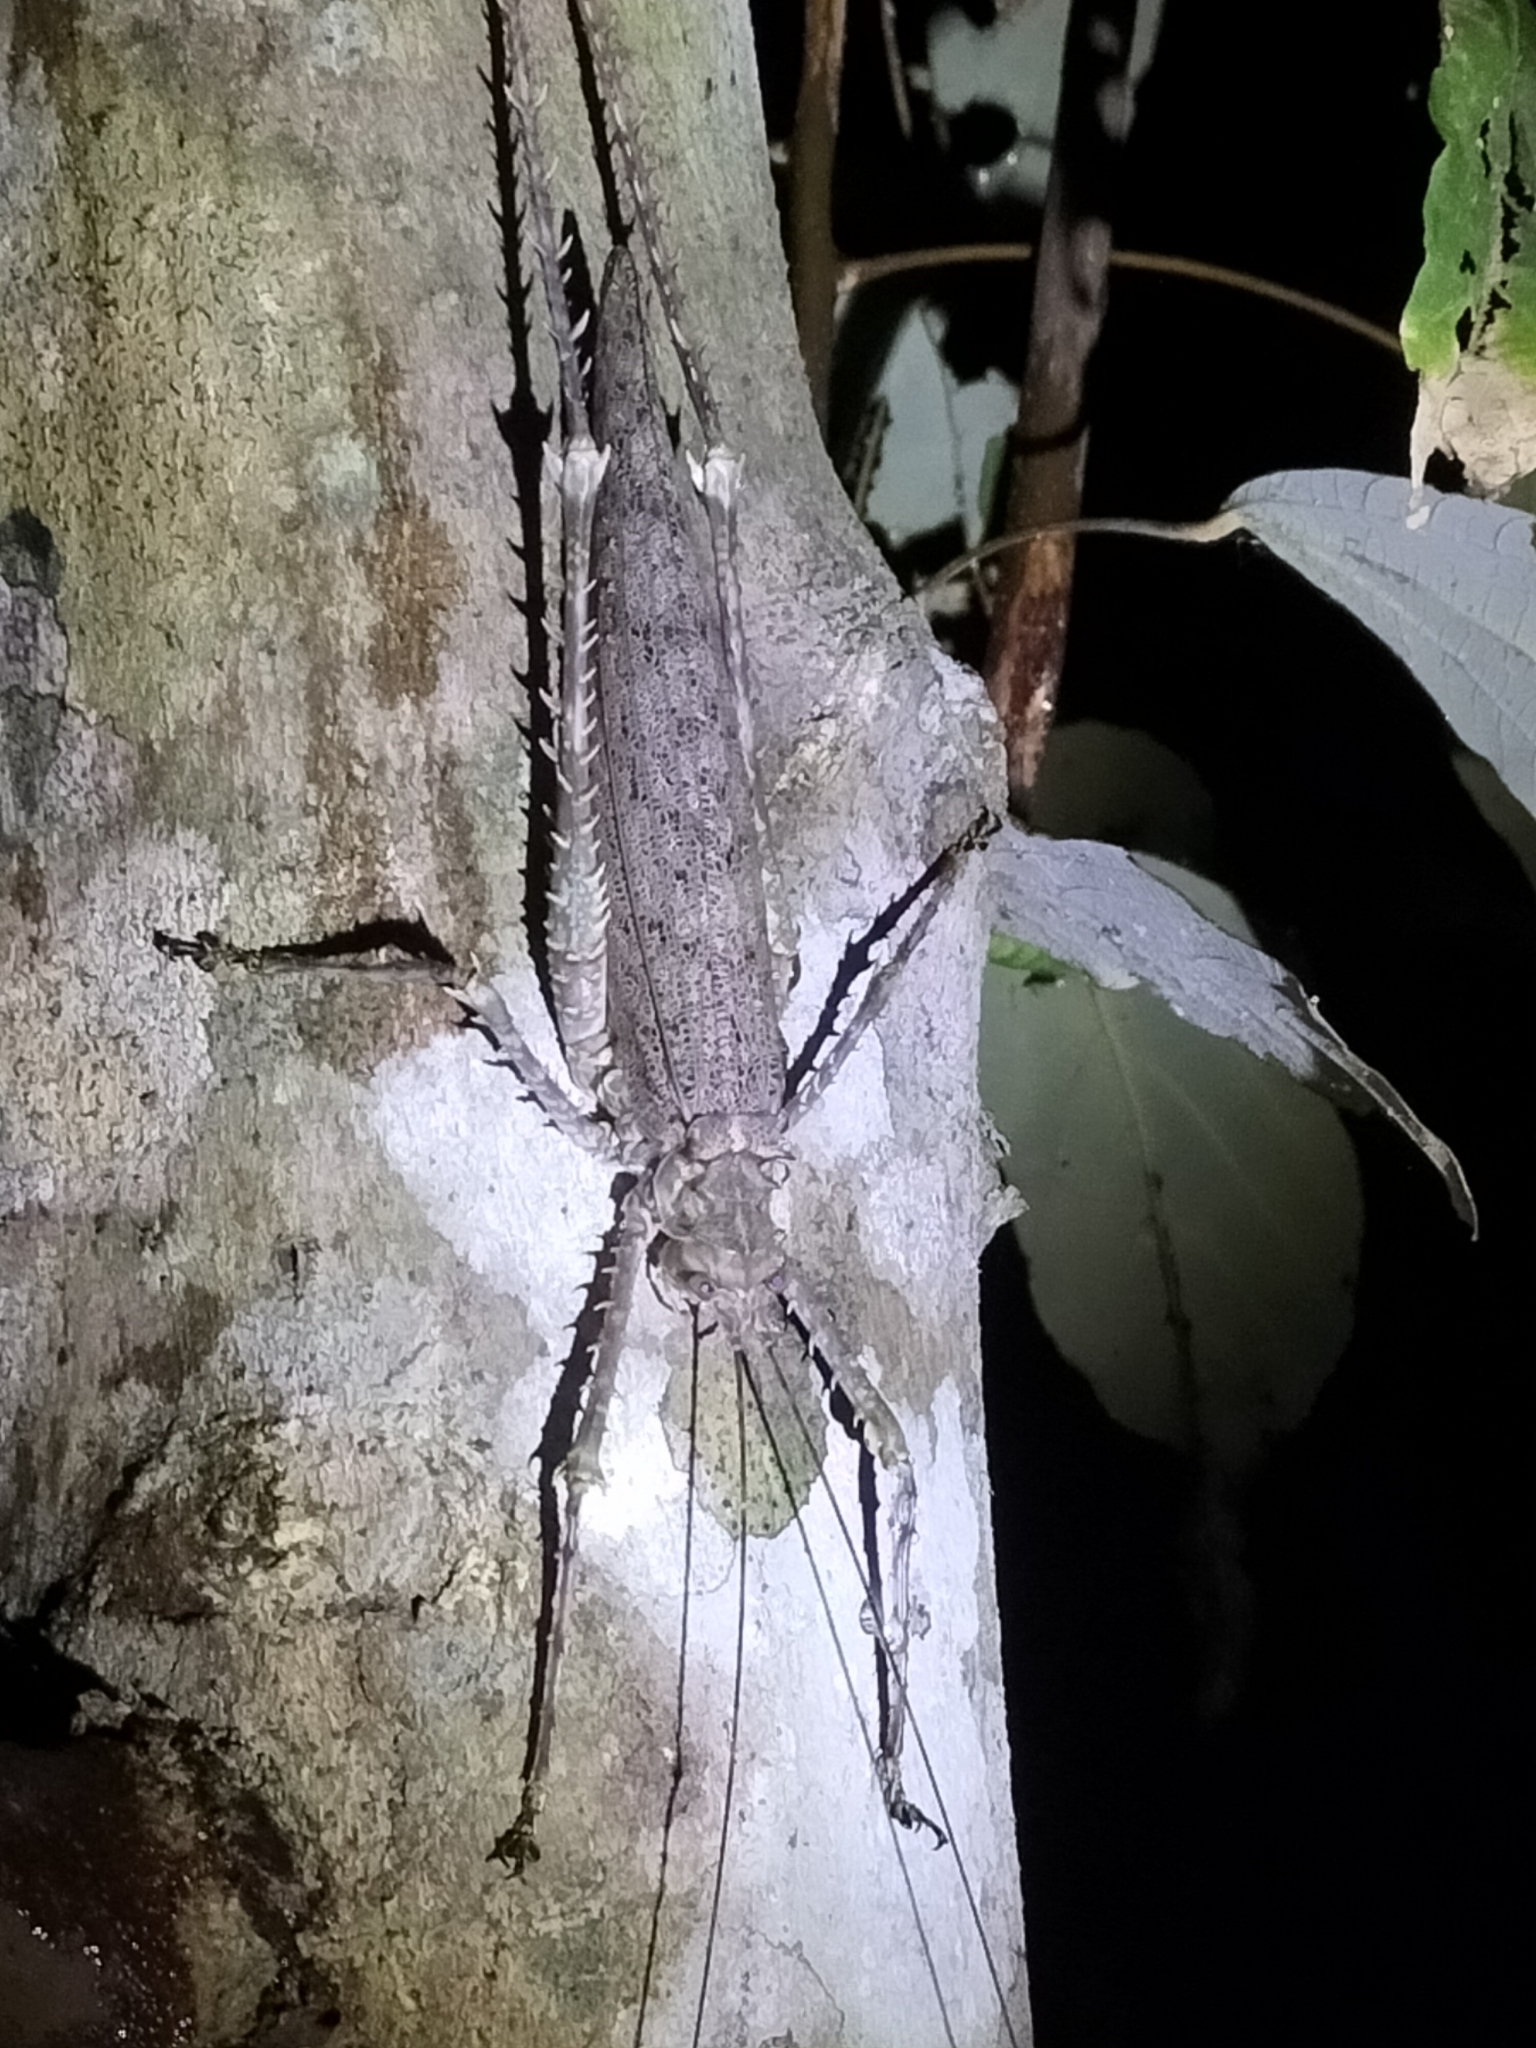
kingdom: Animalia
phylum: Arthropoda
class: Insecta
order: Orthoptera
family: Tettigoniidae
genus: Phricta
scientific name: Phricta spinosa
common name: Giant spiny forest katydid
